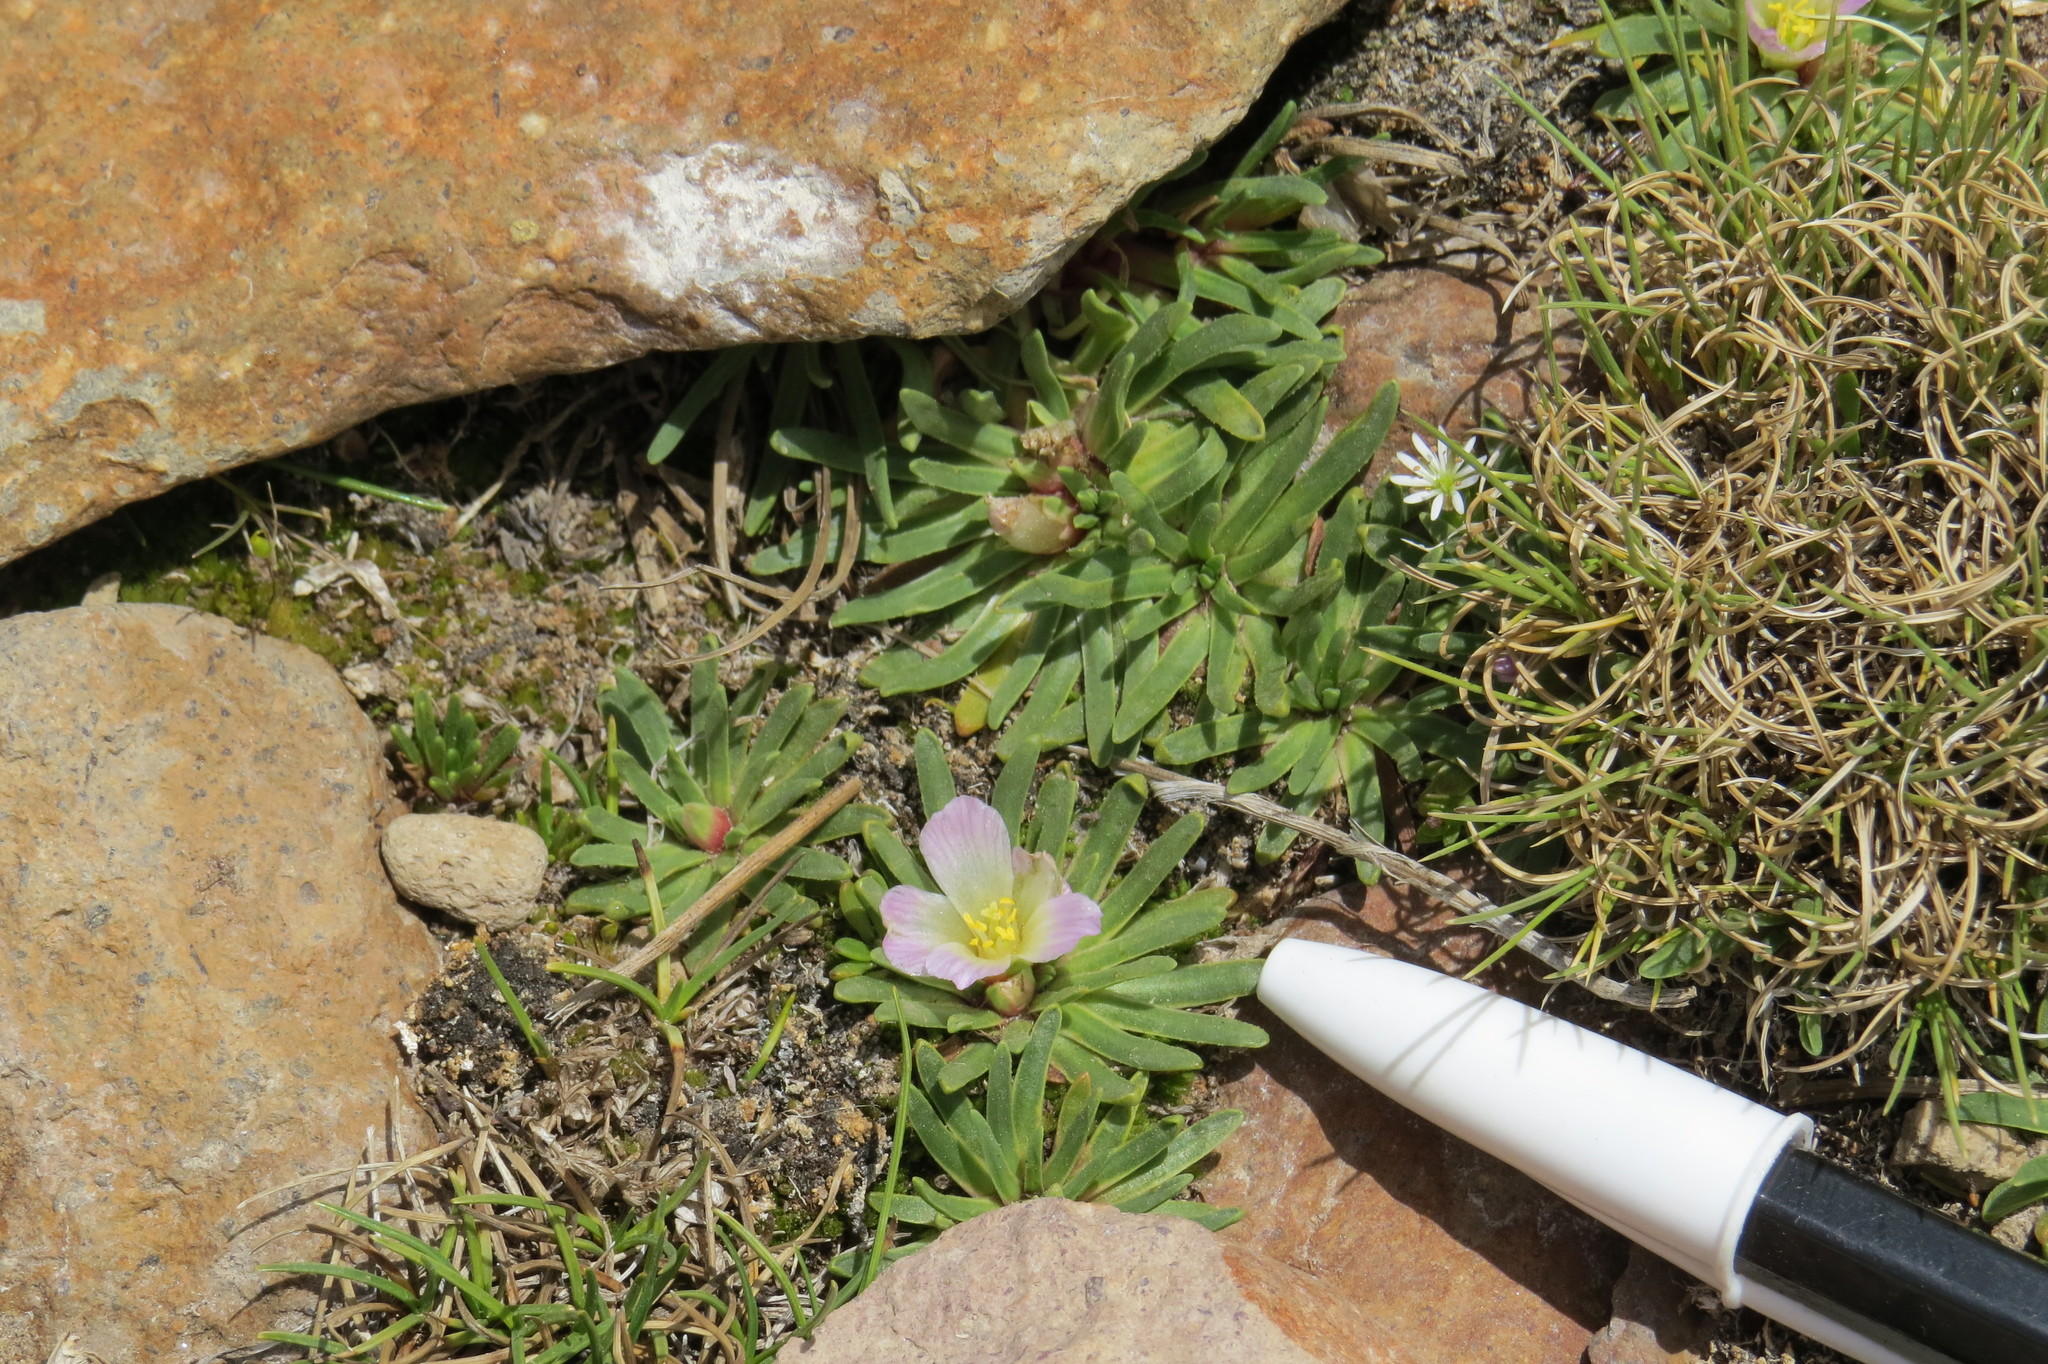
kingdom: Plantae
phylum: Tracheophyta
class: Magnoliopsida
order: Caryophyllales
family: Montiaceae
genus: Calandrinia
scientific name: Calandrinia compacta
